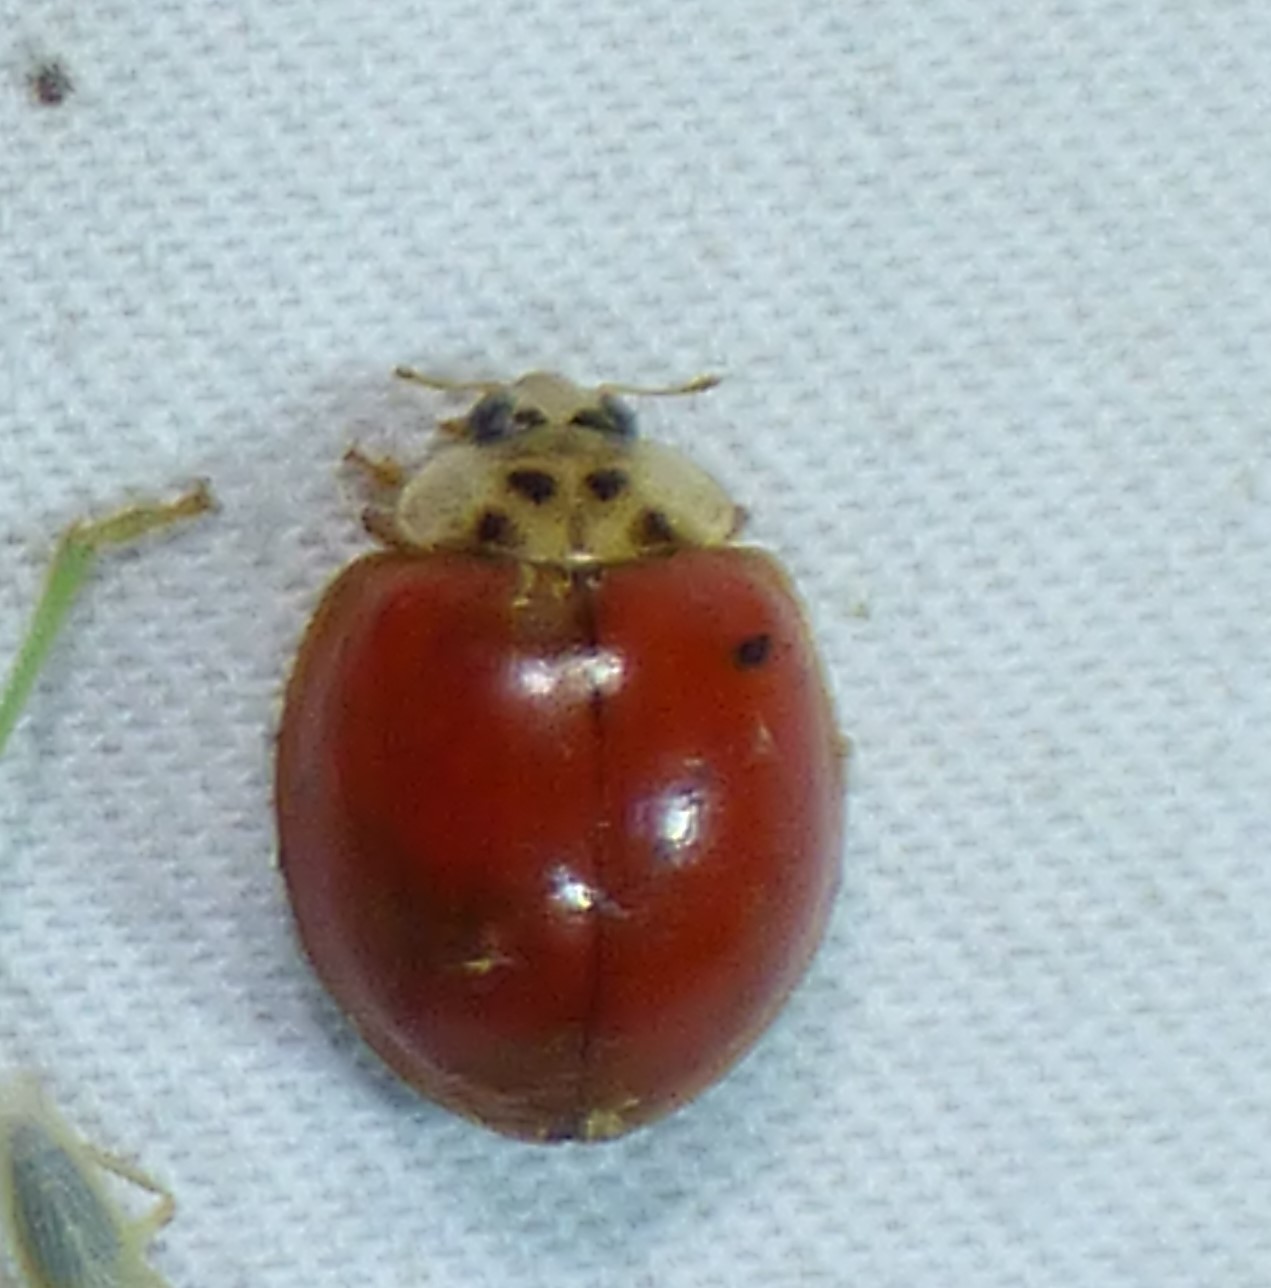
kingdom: Animalia
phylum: Arthropoda
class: Insecta
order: Coleoptera
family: Coccinellidae
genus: Harmonia
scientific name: Harmonia axyridis
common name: Harlequin ladybird
